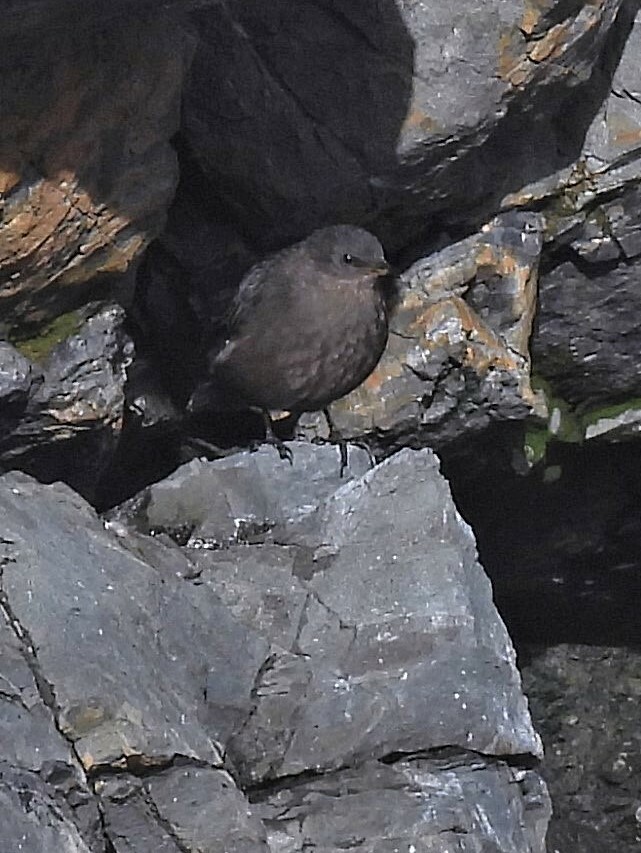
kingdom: Animalia
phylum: Chordata
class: Aves
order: Passeriformes
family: Furnariidae
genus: Cinclodes
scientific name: Cinclodes antarcticus
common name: Blackish cinclodes
